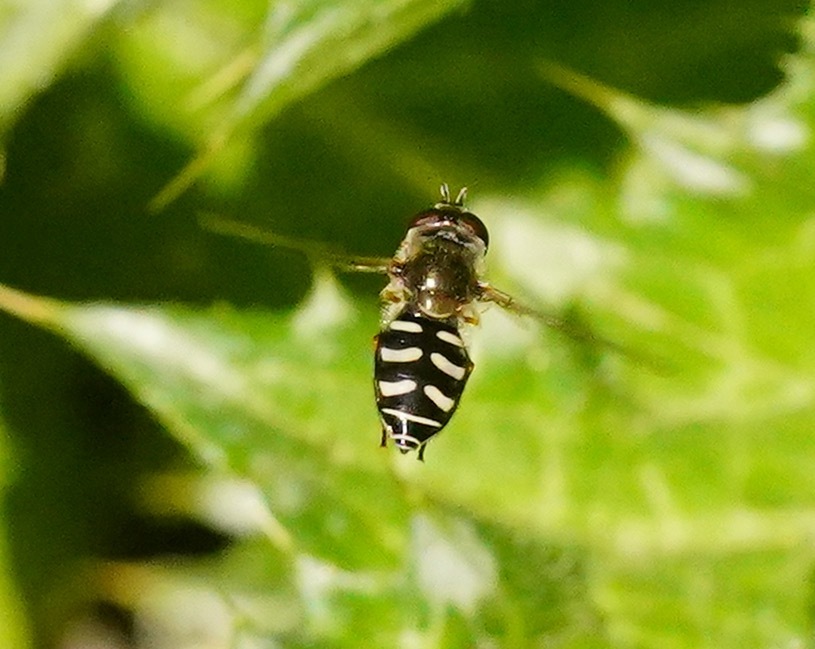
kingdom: Animalia
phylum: Arthropoda
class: Insecta
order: Diptera
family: Syrphidae
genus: Eupeodes
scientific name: Eupeodes volucris
